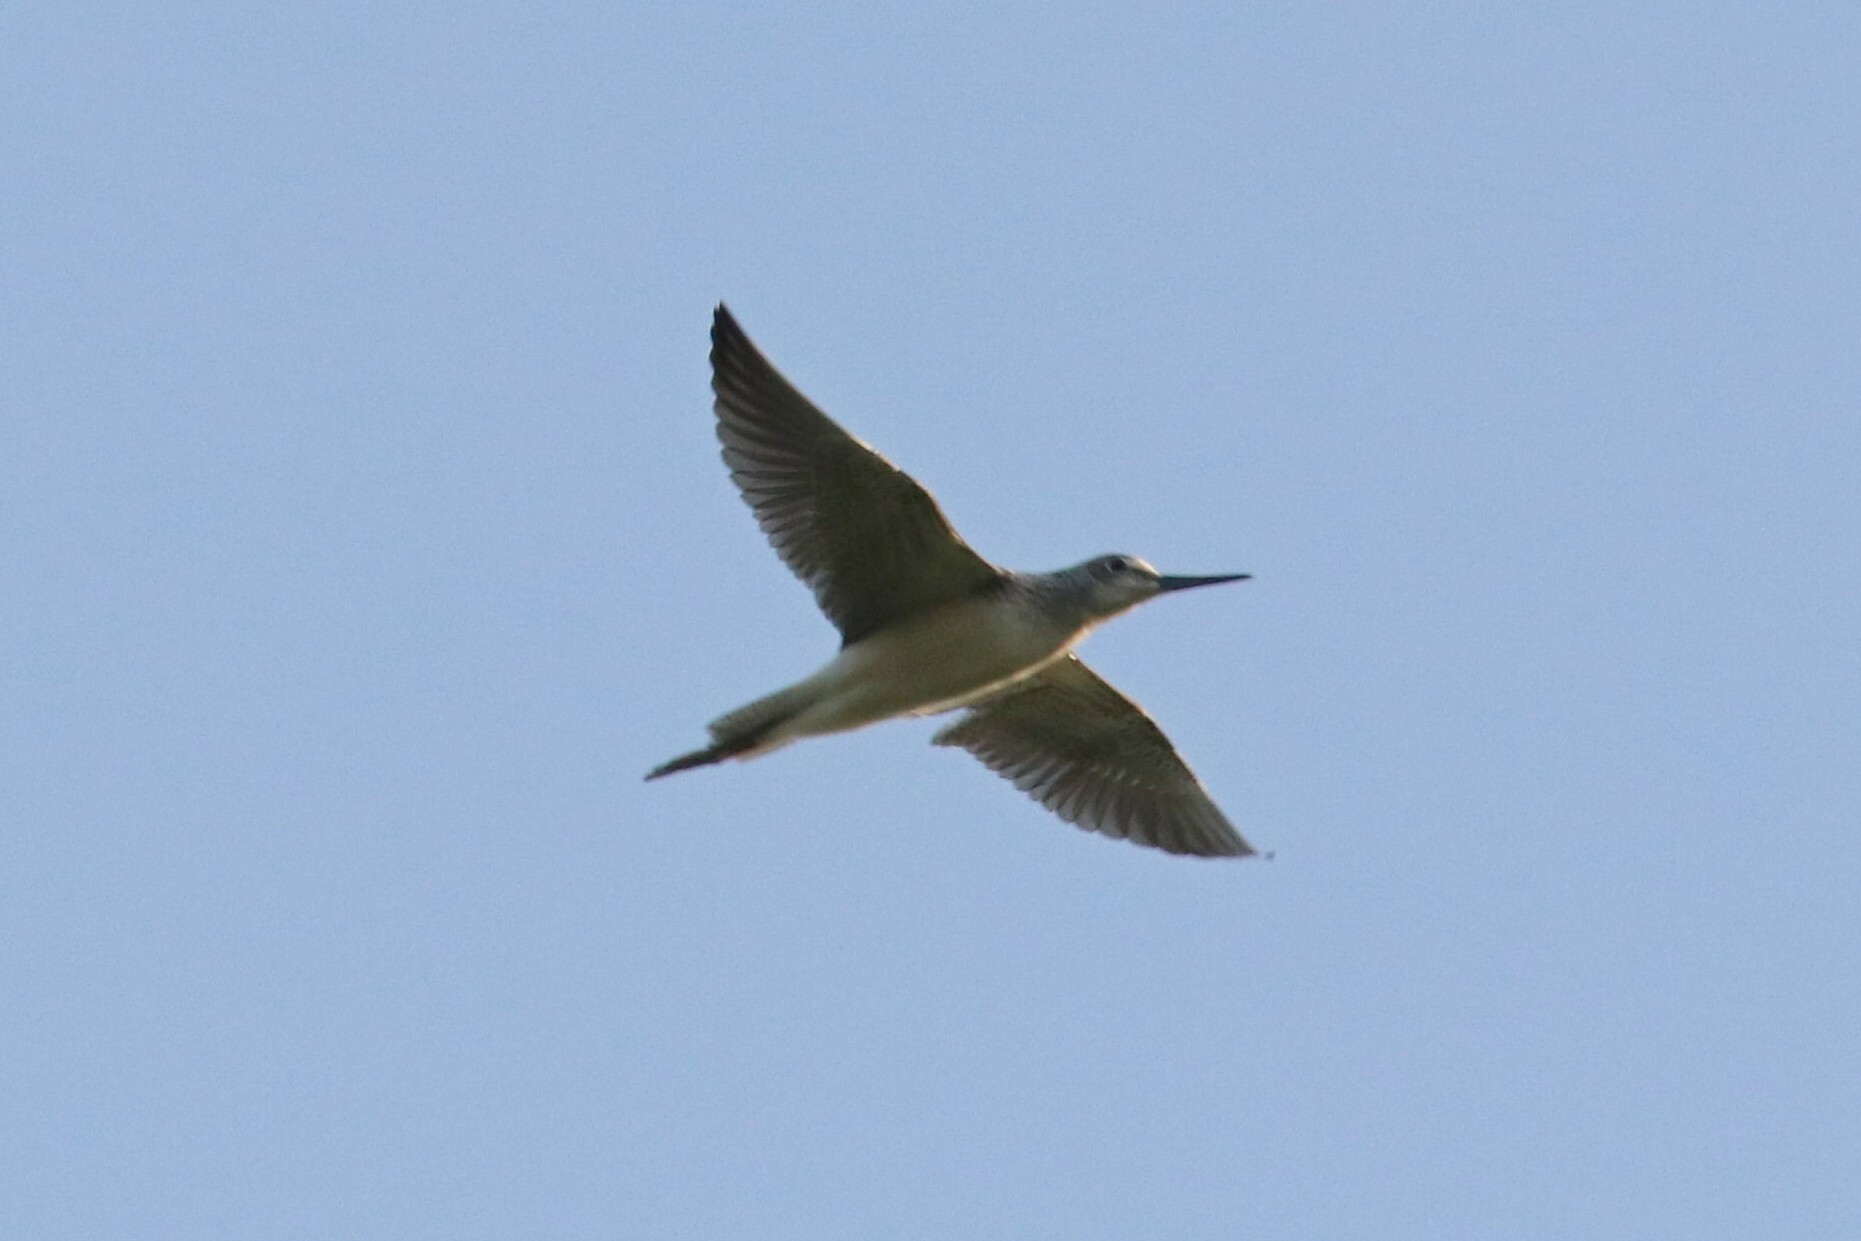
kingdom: Animalia
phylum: Chordata
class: Aves
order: Charadriiformes
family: Scolopacidae
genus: Tringa
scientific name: Tringa nebularia
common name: Common greenshank
